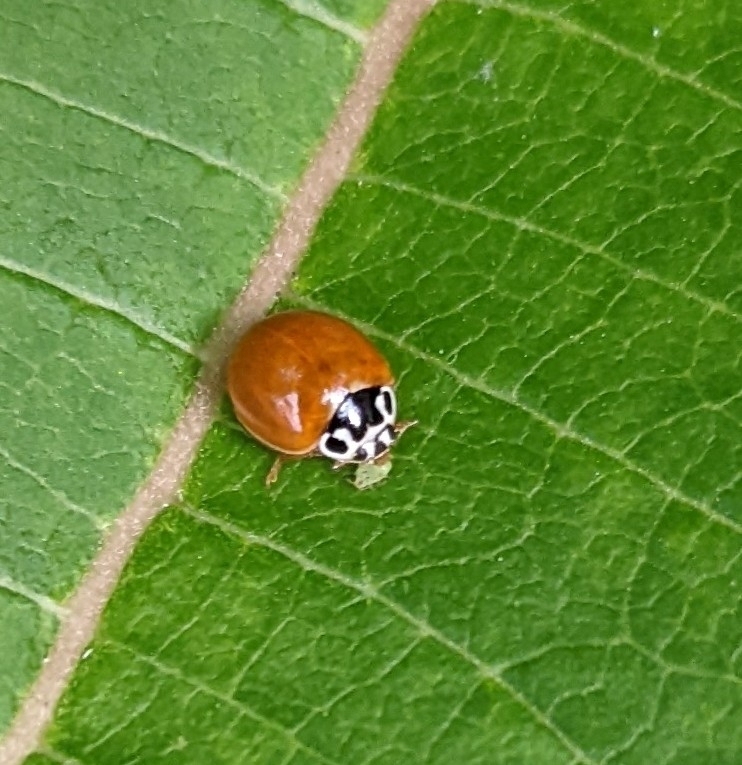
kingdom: Animalia
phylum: Arthropoda
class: Insecta
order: Coleoptera
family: Coccinellidae
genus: Cycloneda
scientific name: Cycloneda munda
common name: Polished lady beetle
